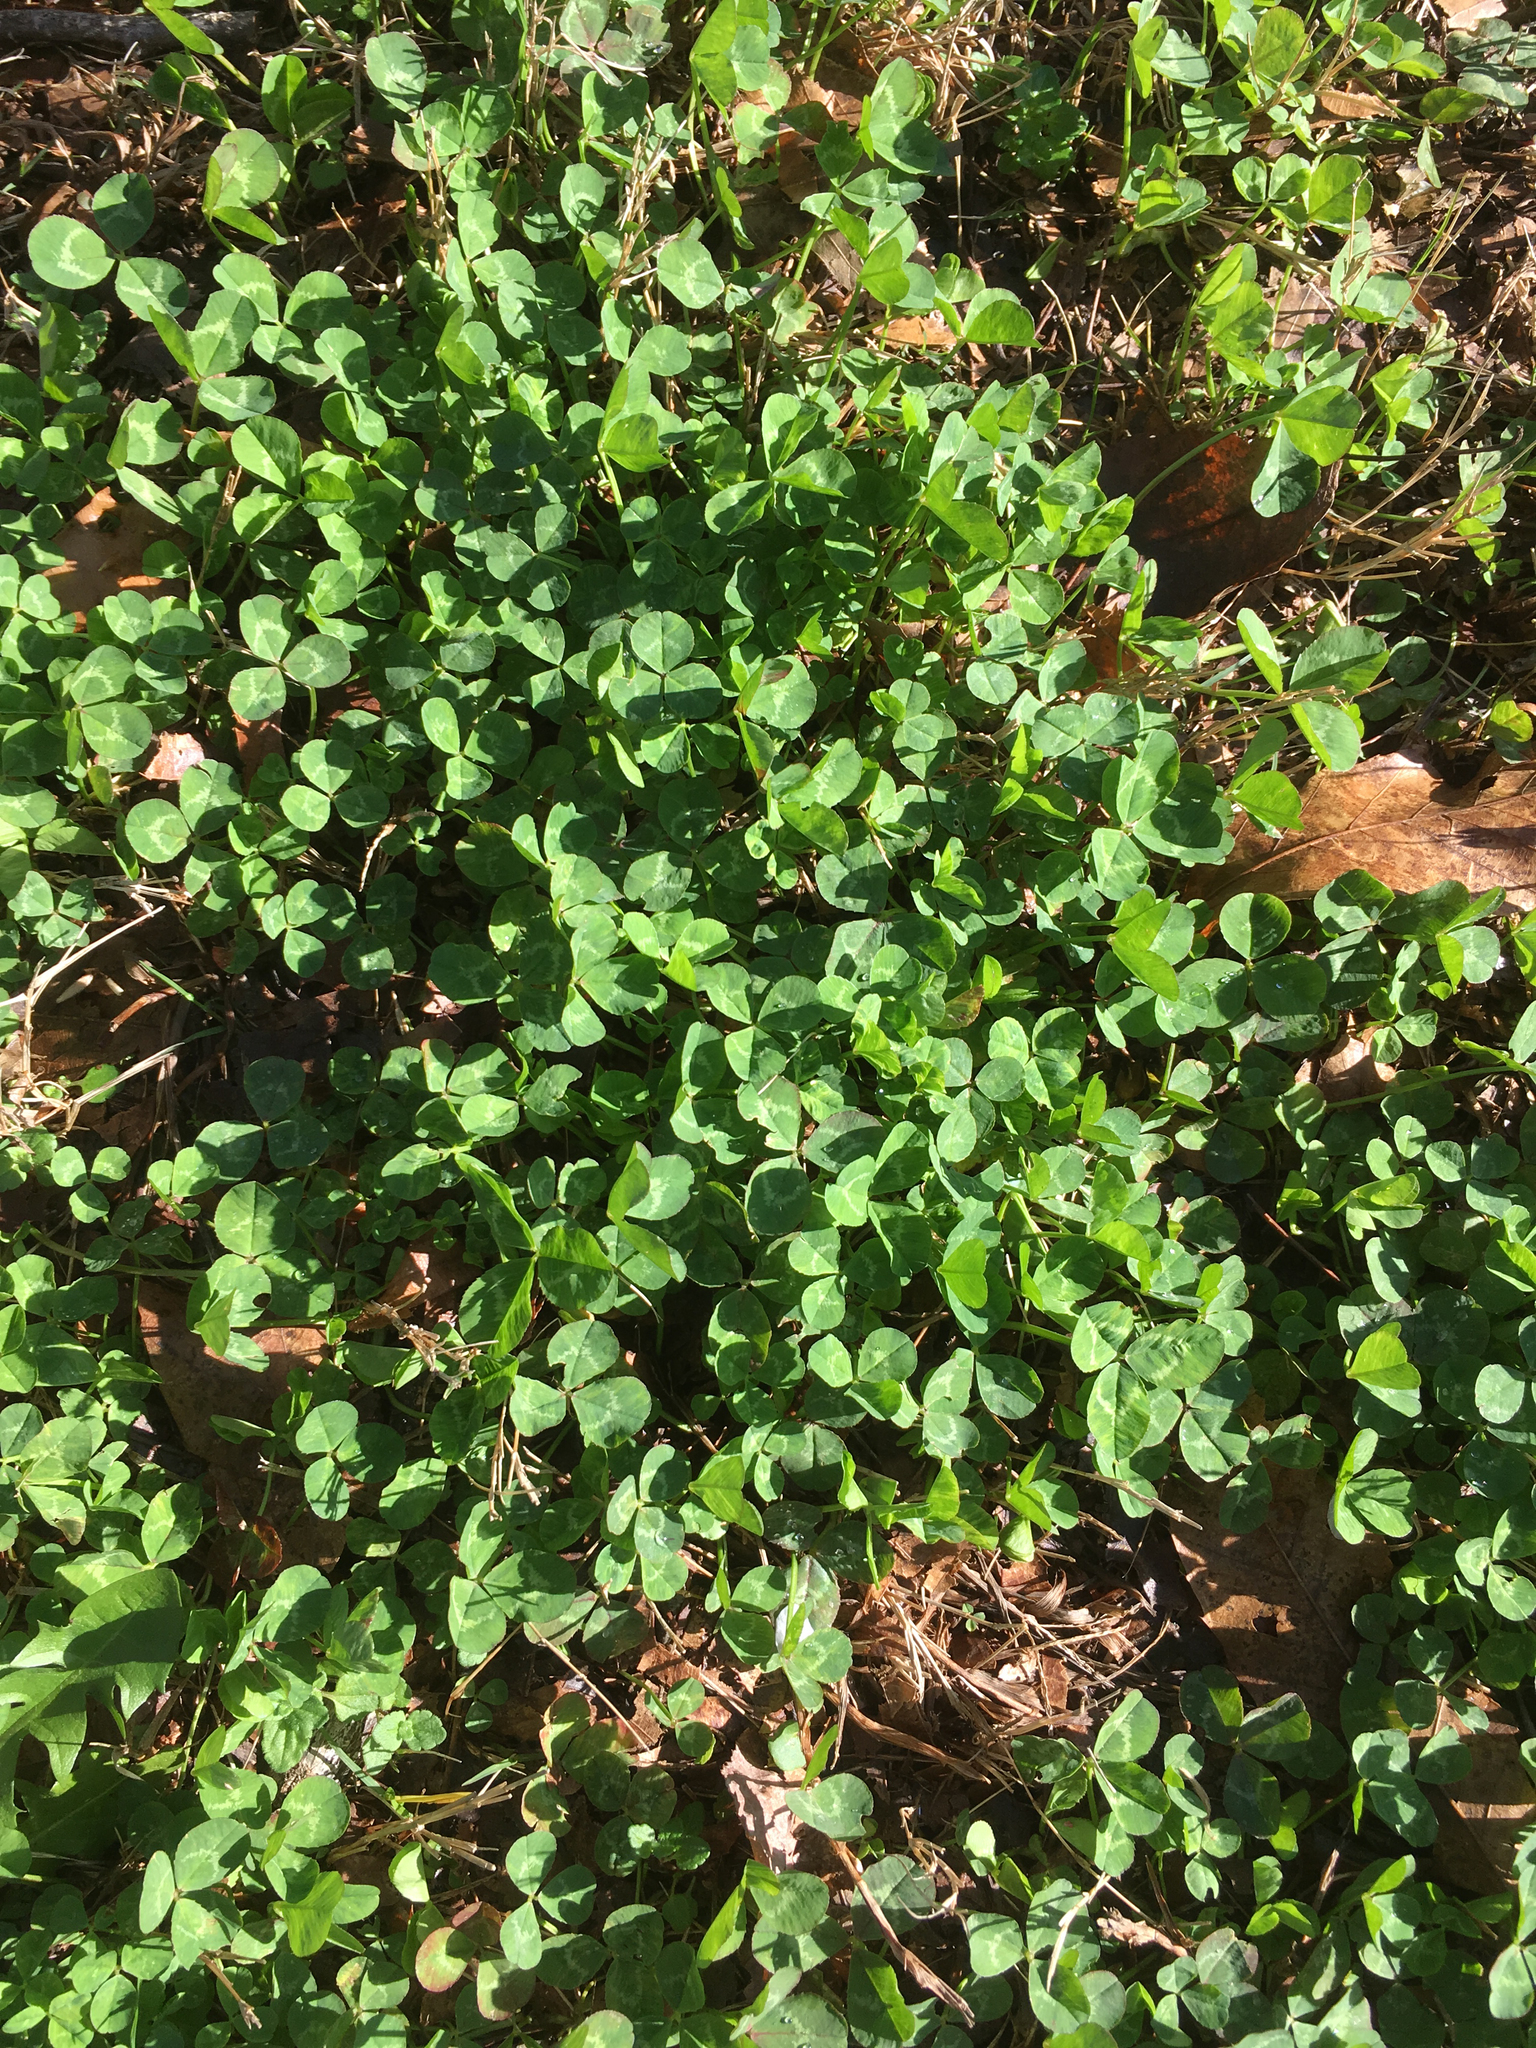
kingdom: Plantae
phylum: Tracheophyta
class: Magnoliopsida
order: Fabales
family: Fabaceae
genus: Trifolium
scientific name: Trifolium repens
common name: White clover
